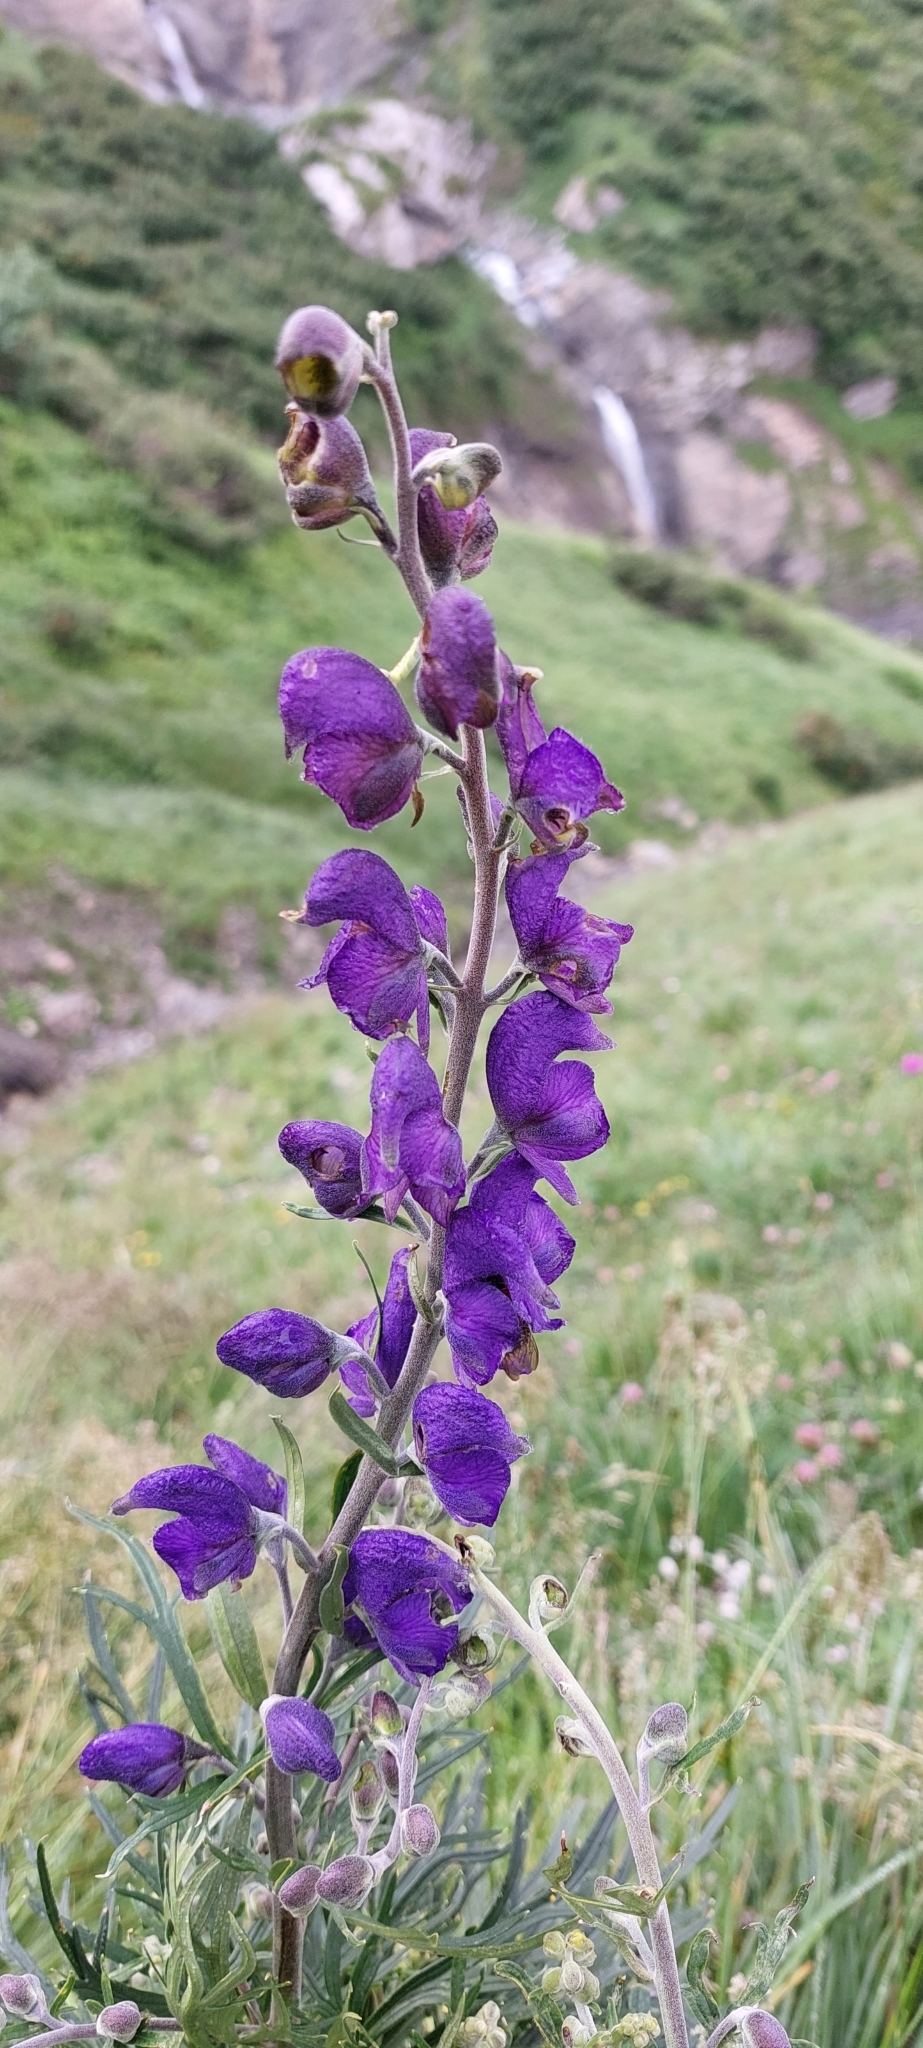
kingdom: Plantae
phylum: Tracheophyta
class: Magnoliopsida
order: Ranunculales
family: Ranunculaceae
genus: Aconitum
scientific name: Aconitum napellus
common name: Garden monkshood
